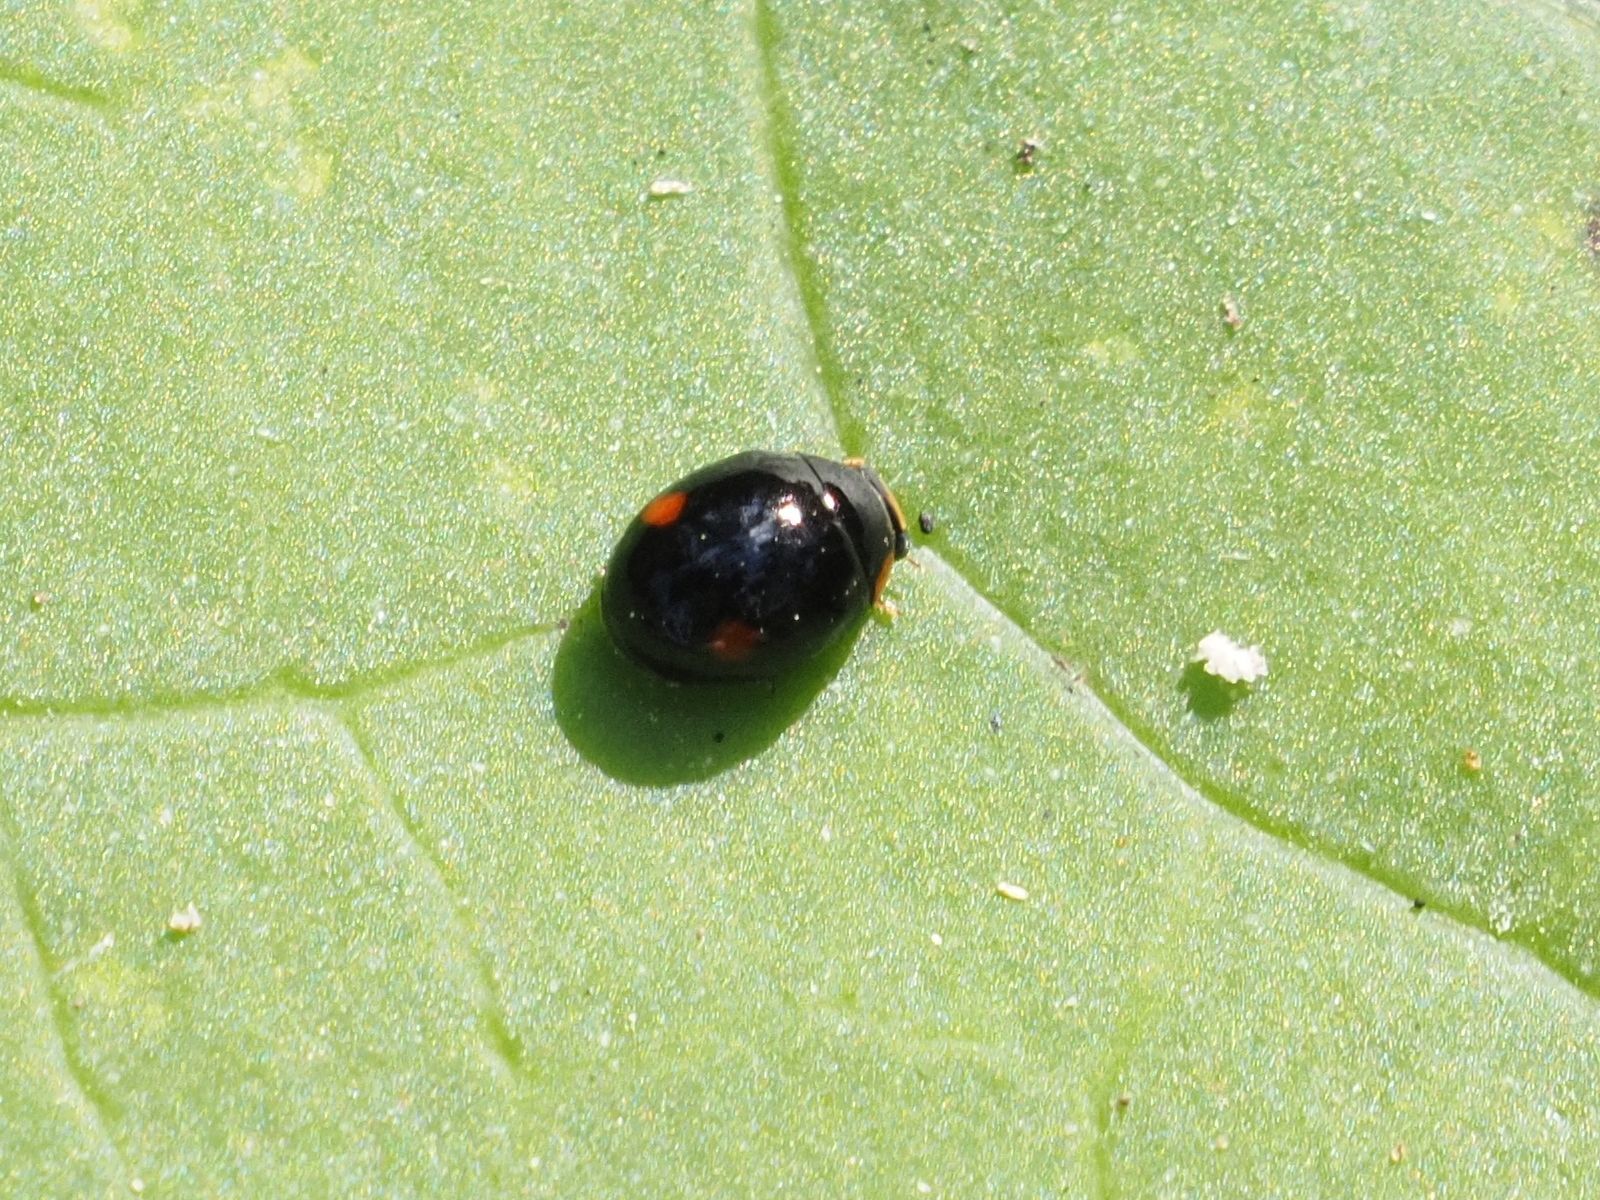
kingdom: Animalia
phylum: Arthropoda
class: Insecta
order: Coleoptera
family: Coccinellidae
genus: Hyperaspis
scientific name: Hyperaspis campestris
